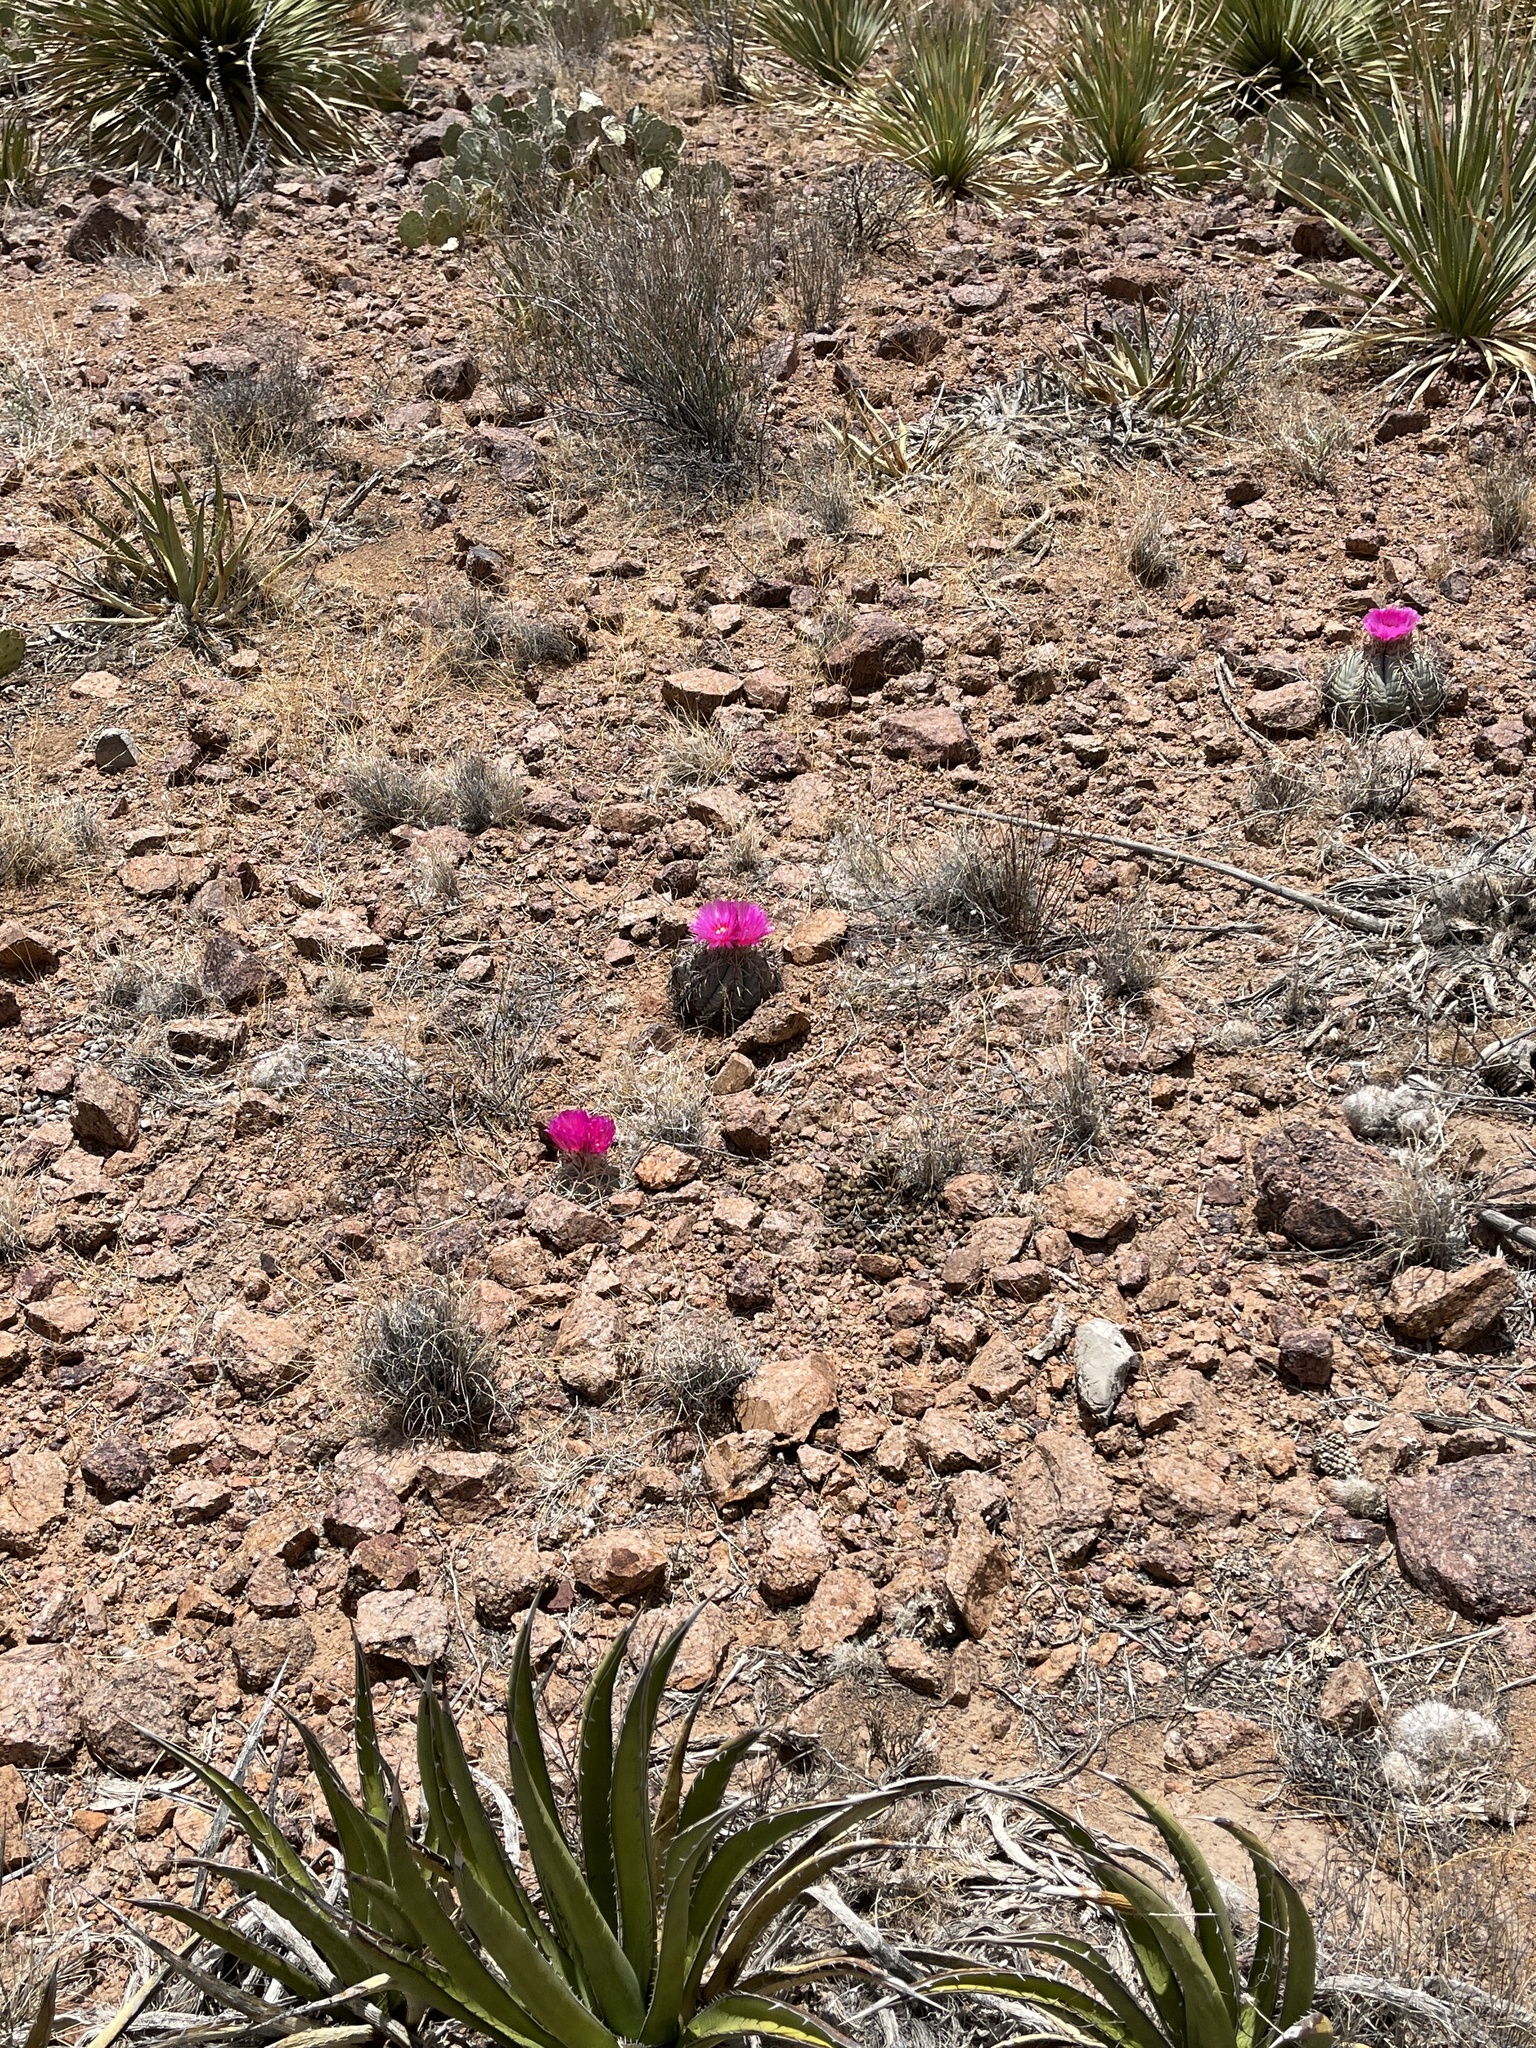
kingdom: Plantae
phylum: Tracheophyta
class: Magnoliopsida
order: Caryophyllales
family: Cactaceae
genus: Echinocactus
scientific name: Echinocactus horizonthalonius
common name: Devilshead
